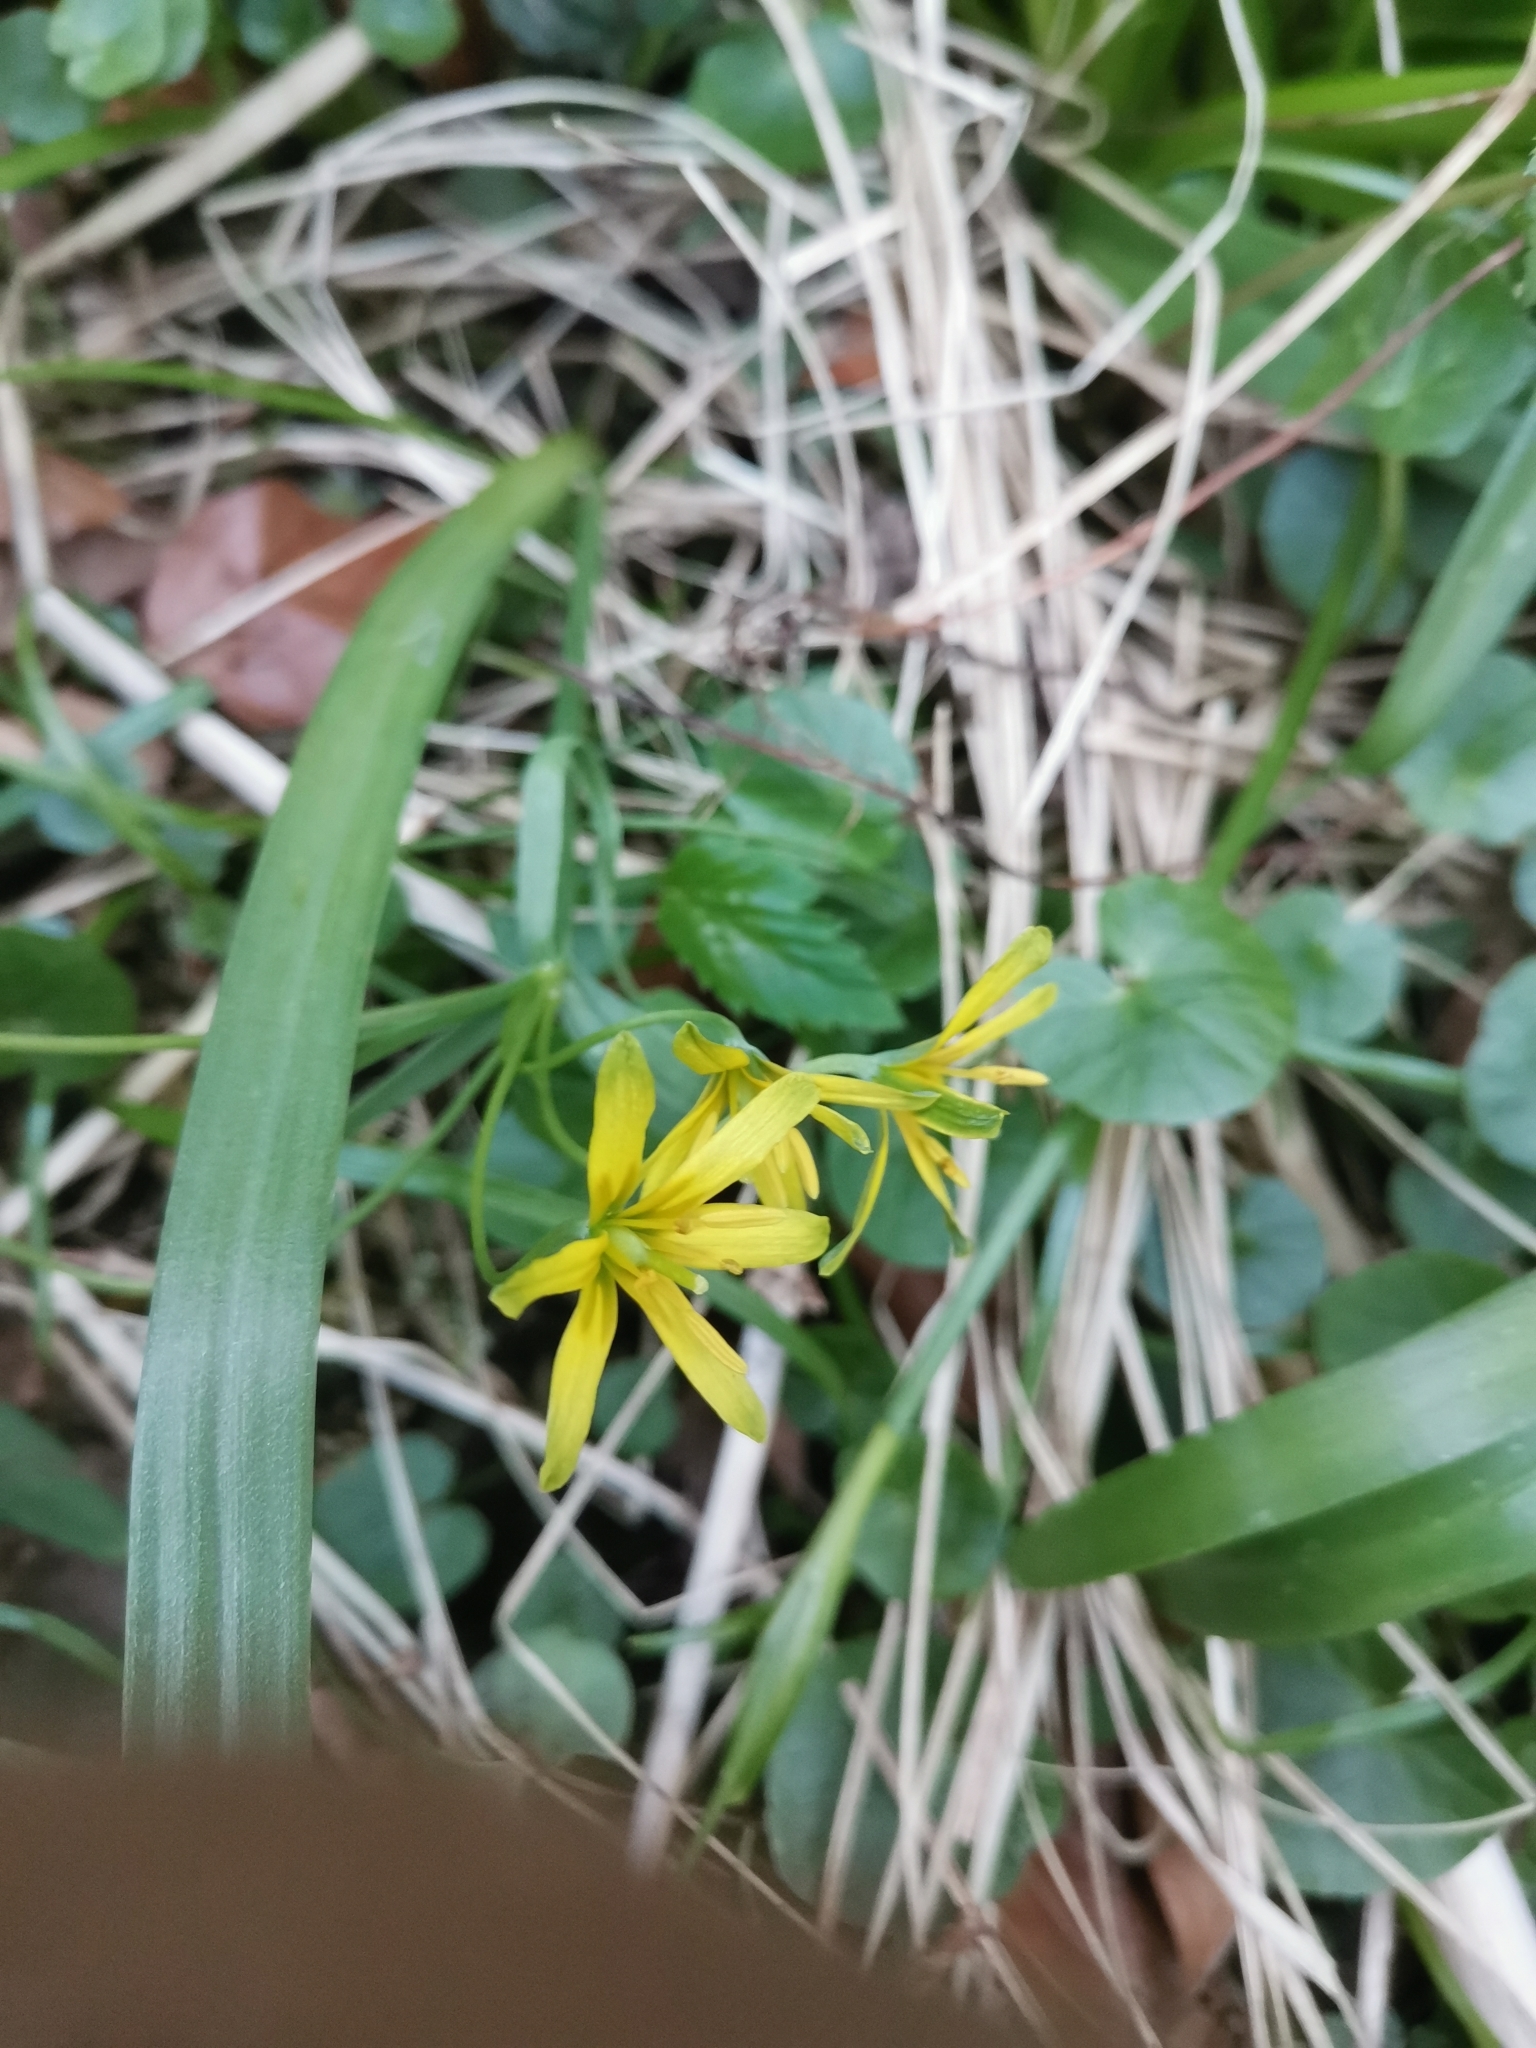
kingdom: Plantae
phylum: Tracheophyta
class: Liliopsida
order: Liliales
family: Liliaceae
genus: Gagea
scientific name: Gagea lutea
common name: Yellow star-of-bethlehem
